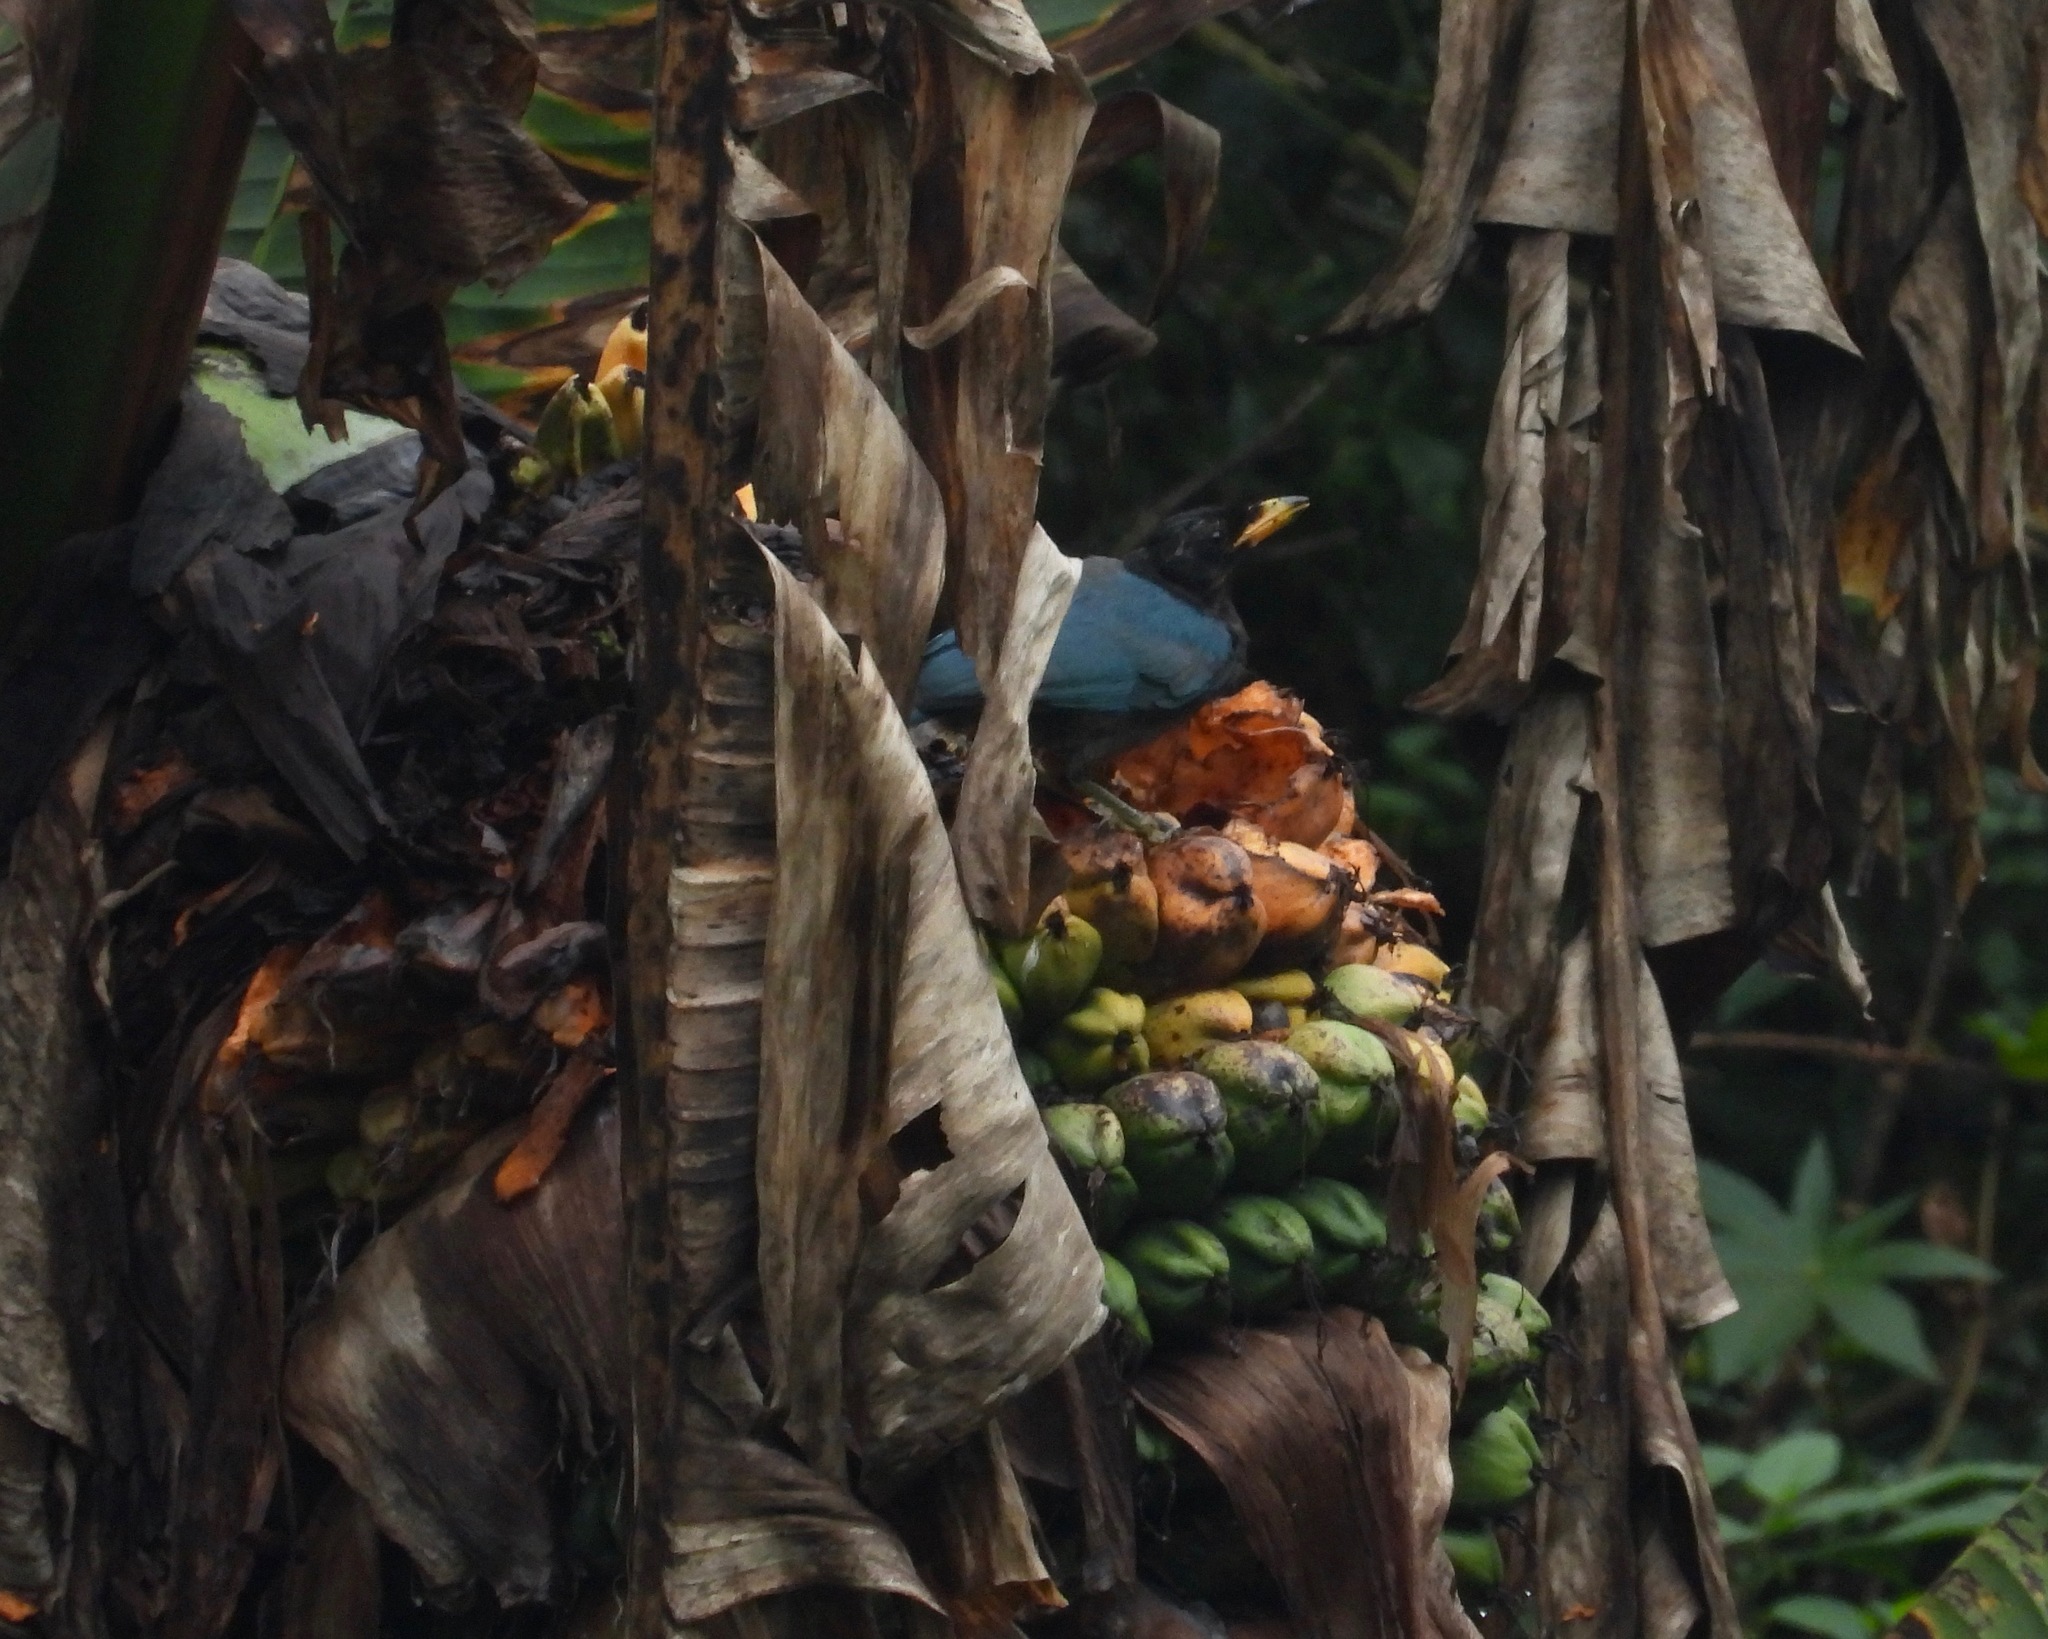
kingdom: Animalia
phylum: Chordata
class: Aves
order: Passeriformes
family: Corvidae
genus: Cyanocorax
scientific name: Cyanocorax melanocyaneus
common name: Bushy-crested jay
